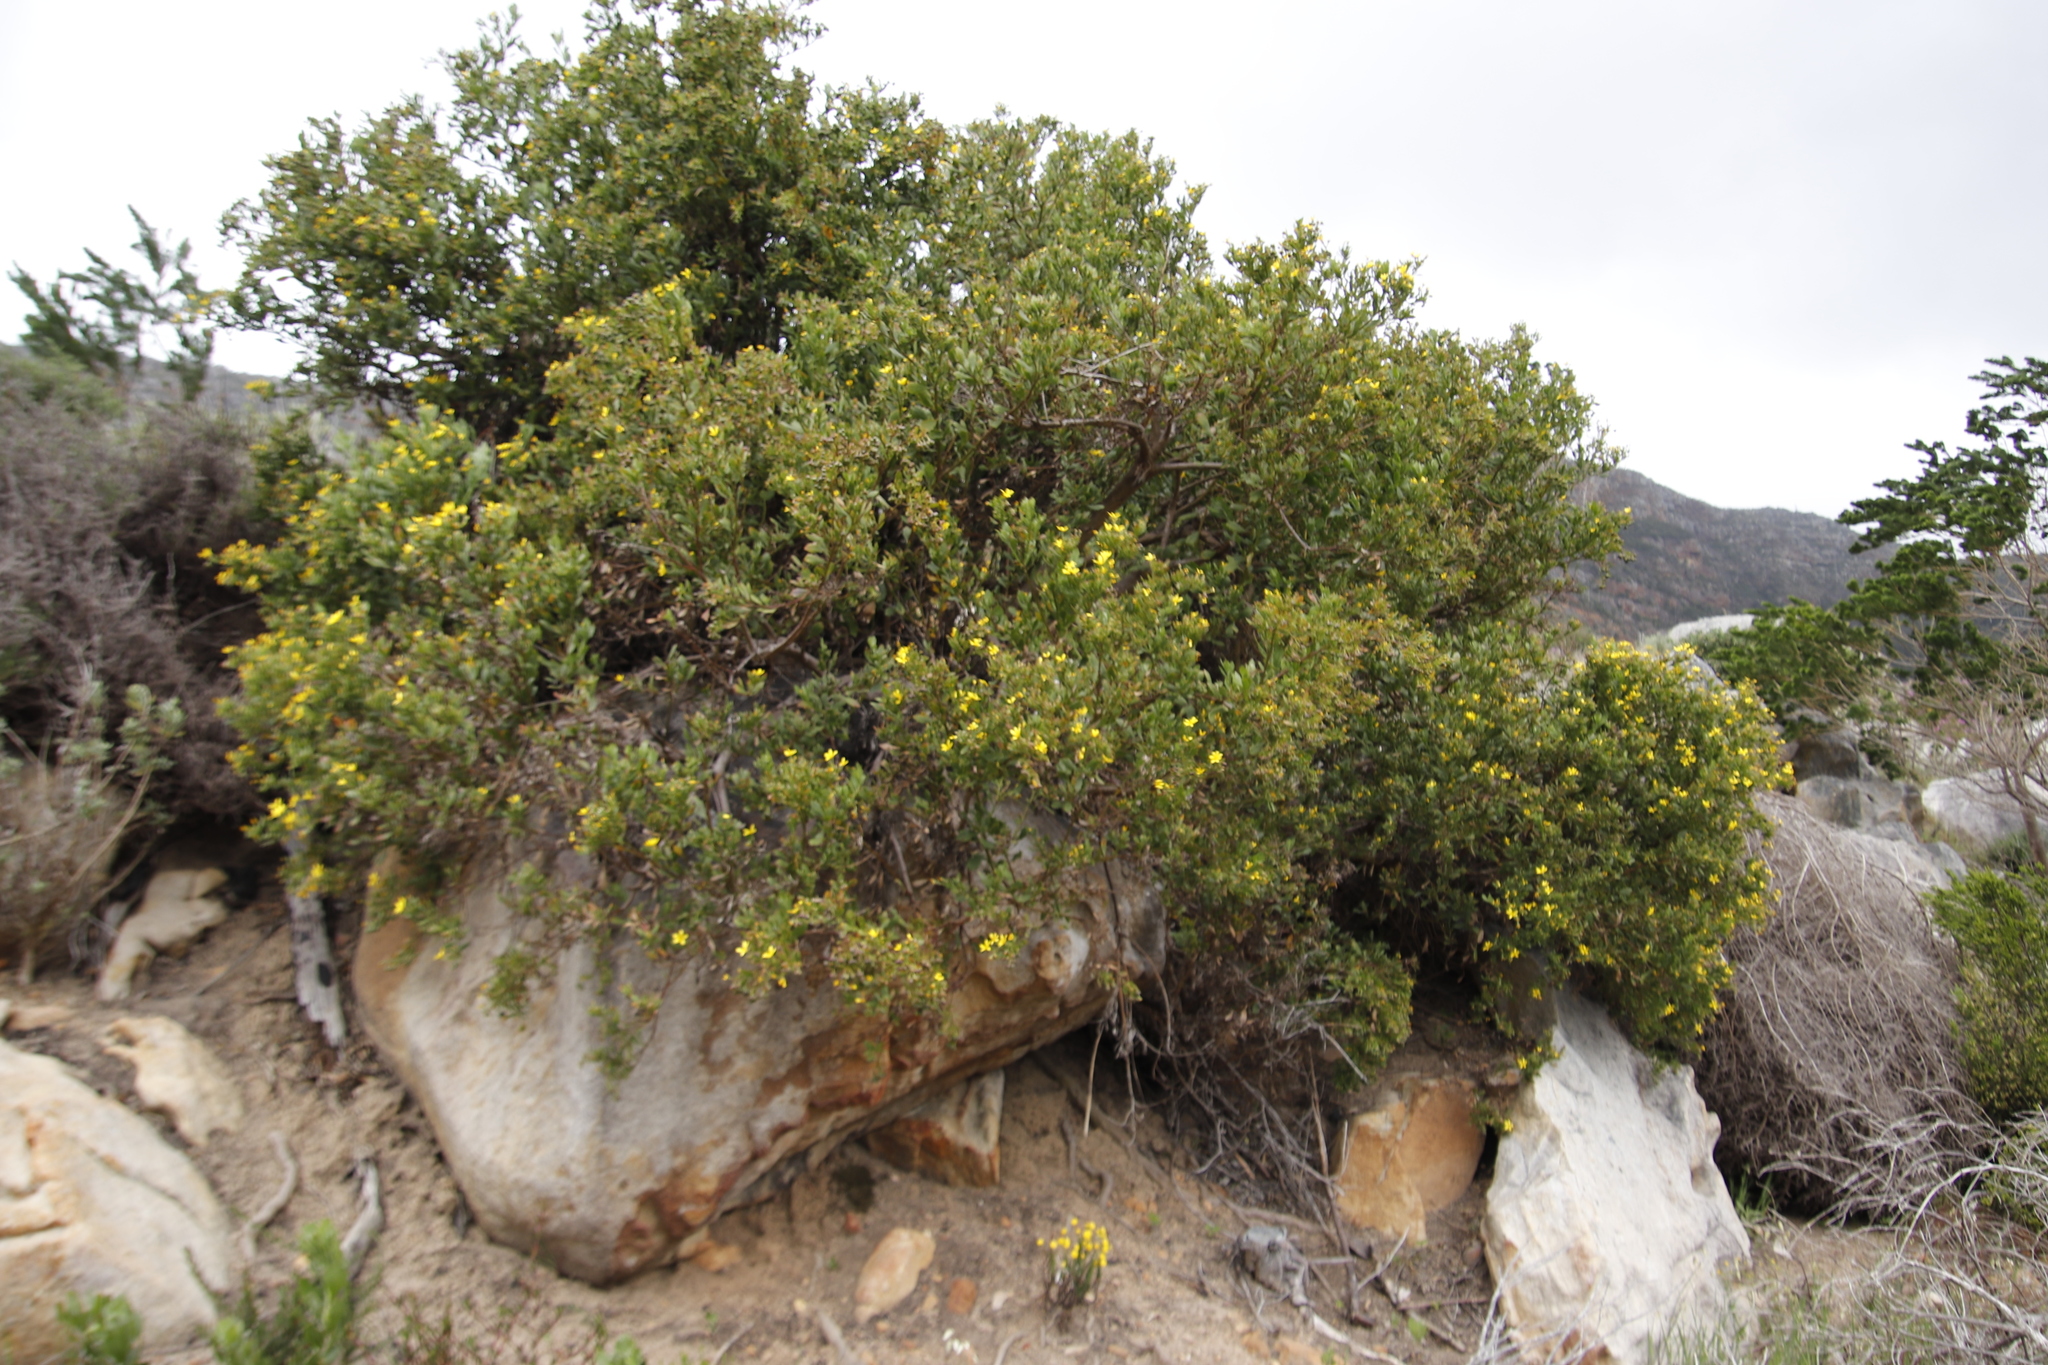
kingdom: Plantae
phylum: Tracheophyta
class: Magnoliopsida
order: Asterales
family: Asteraceae
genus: Osteospermum
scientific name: Osteospermum moniliferum
